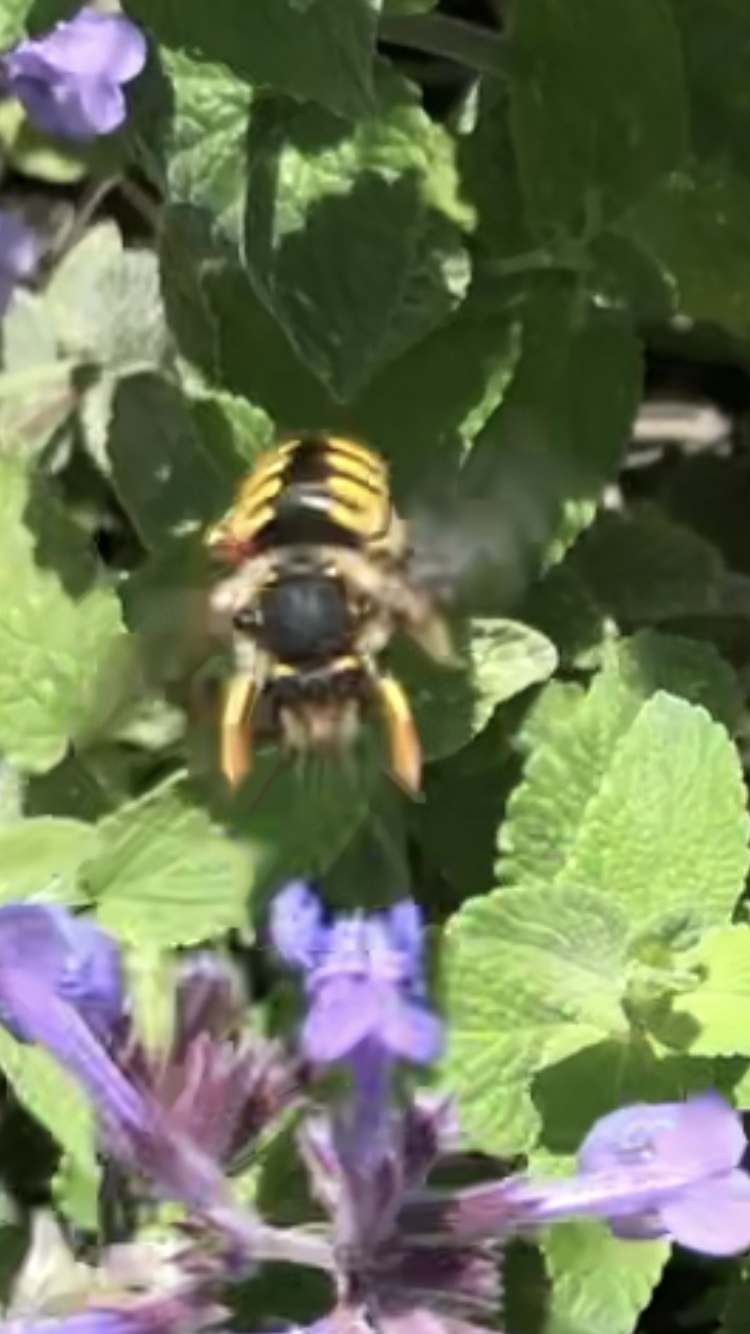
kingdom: Animalia
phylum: Arthropoda
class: Insecta
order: Hymenoptera
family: Megachilidae
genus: Anthidium
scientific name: Anthidium manicatum
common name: Wool carder bee
